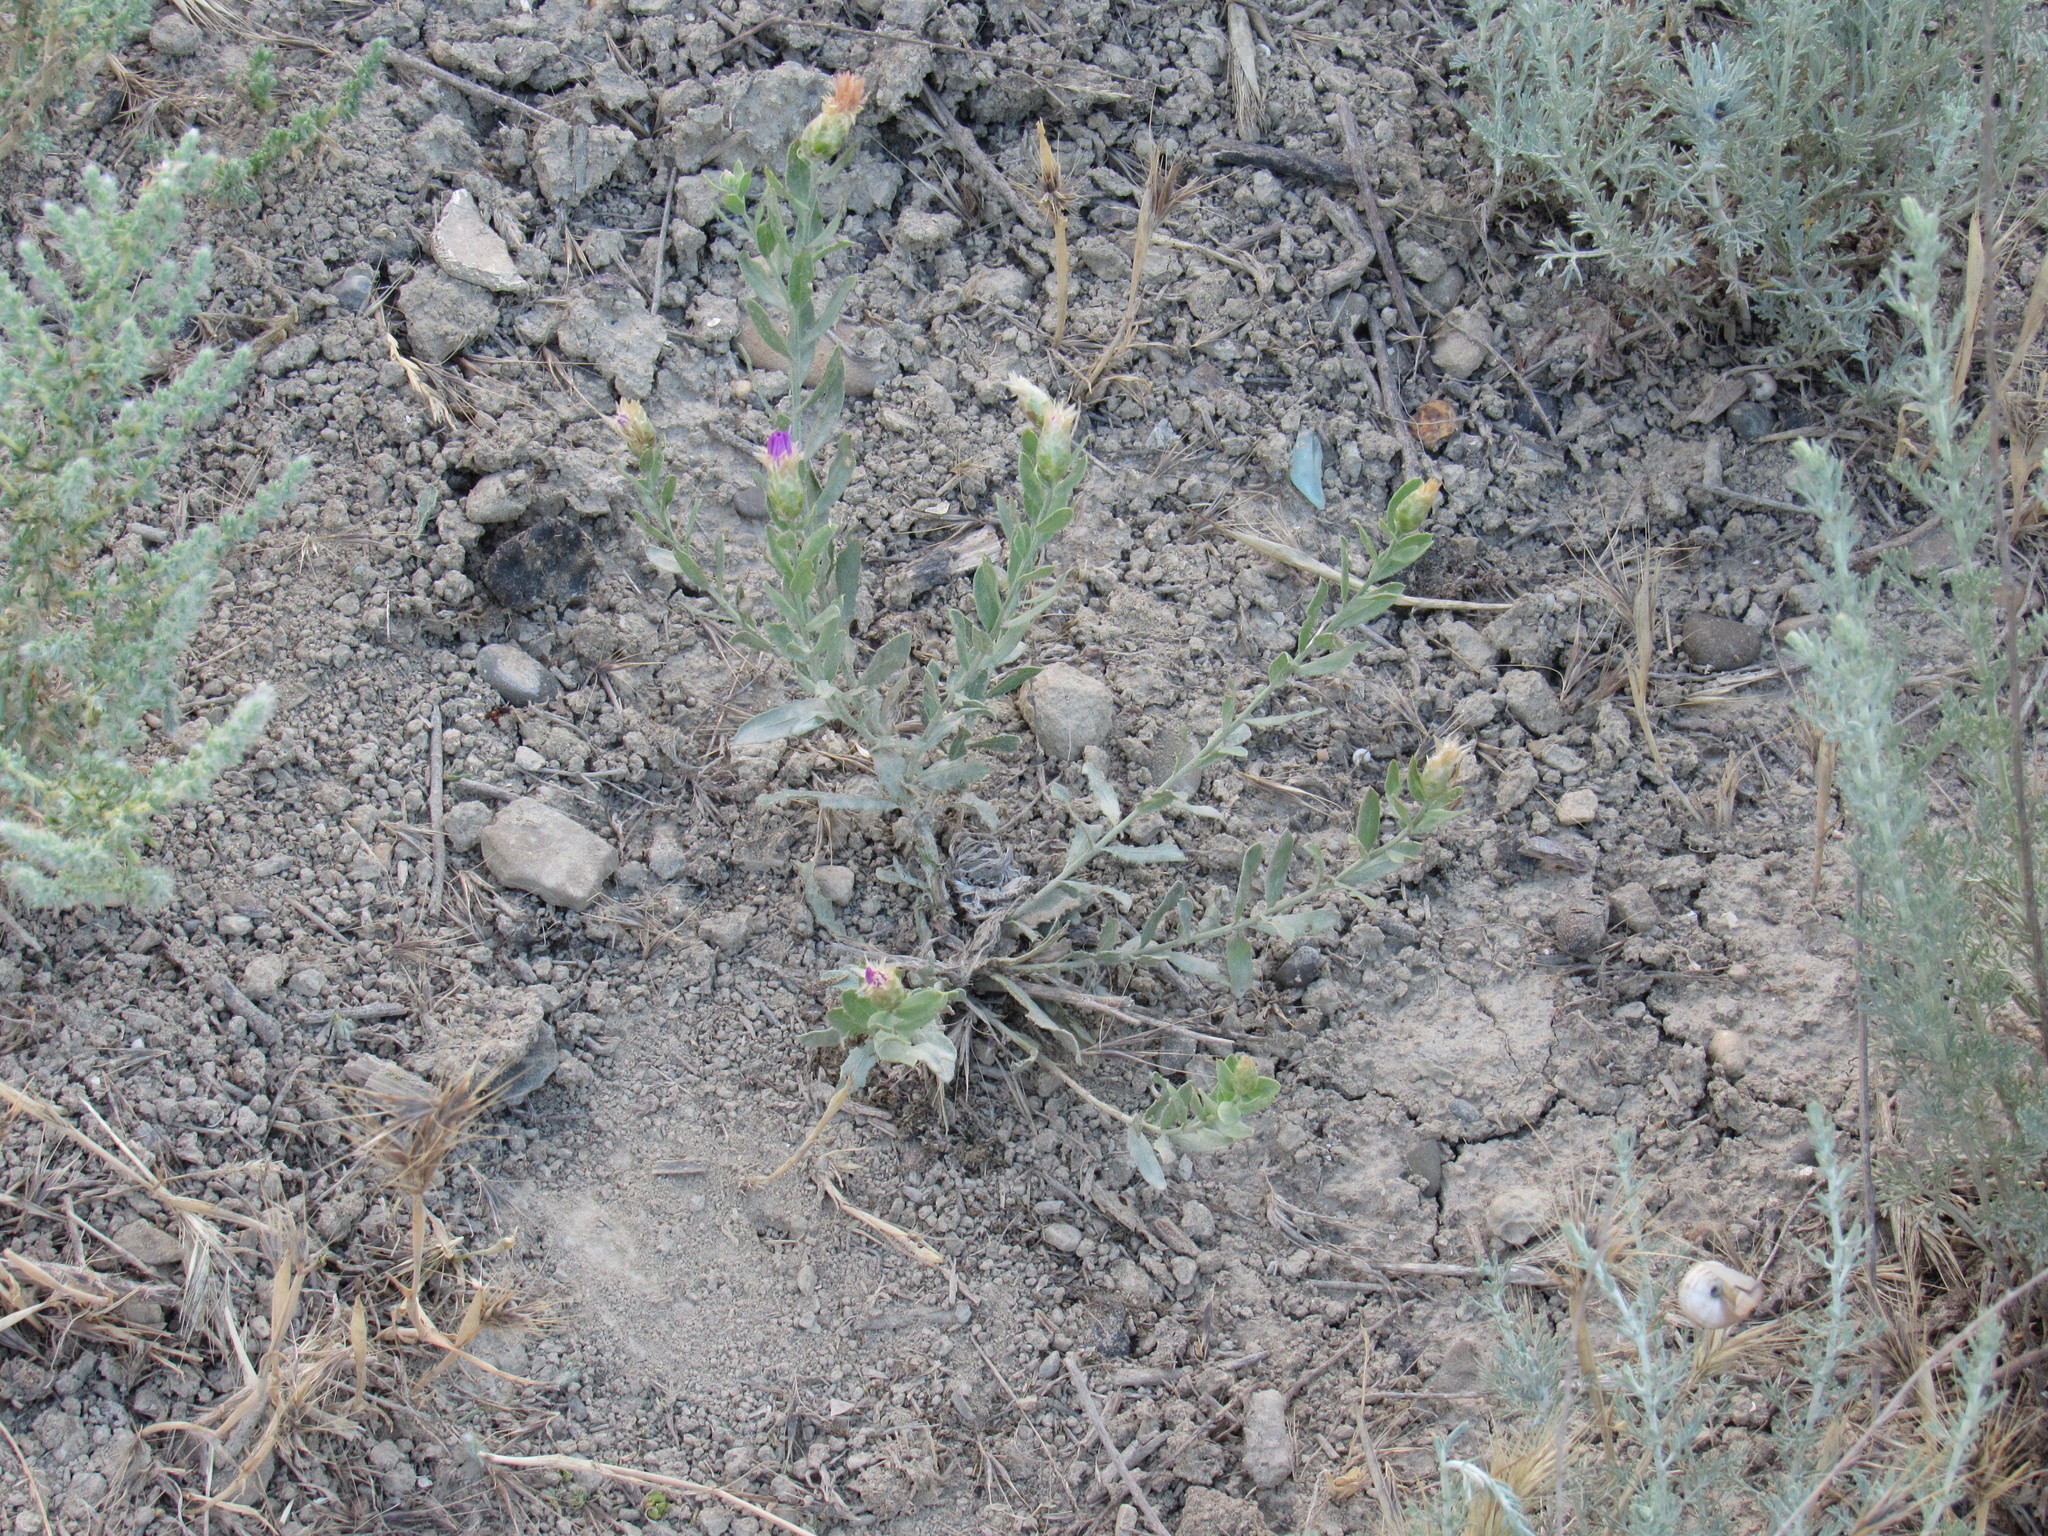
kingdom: Plantae
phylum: Tracheophyta
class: Magnoliopsida
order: Asterales
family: Asteraceae
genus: Leuzea
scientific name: Leuzea repens
